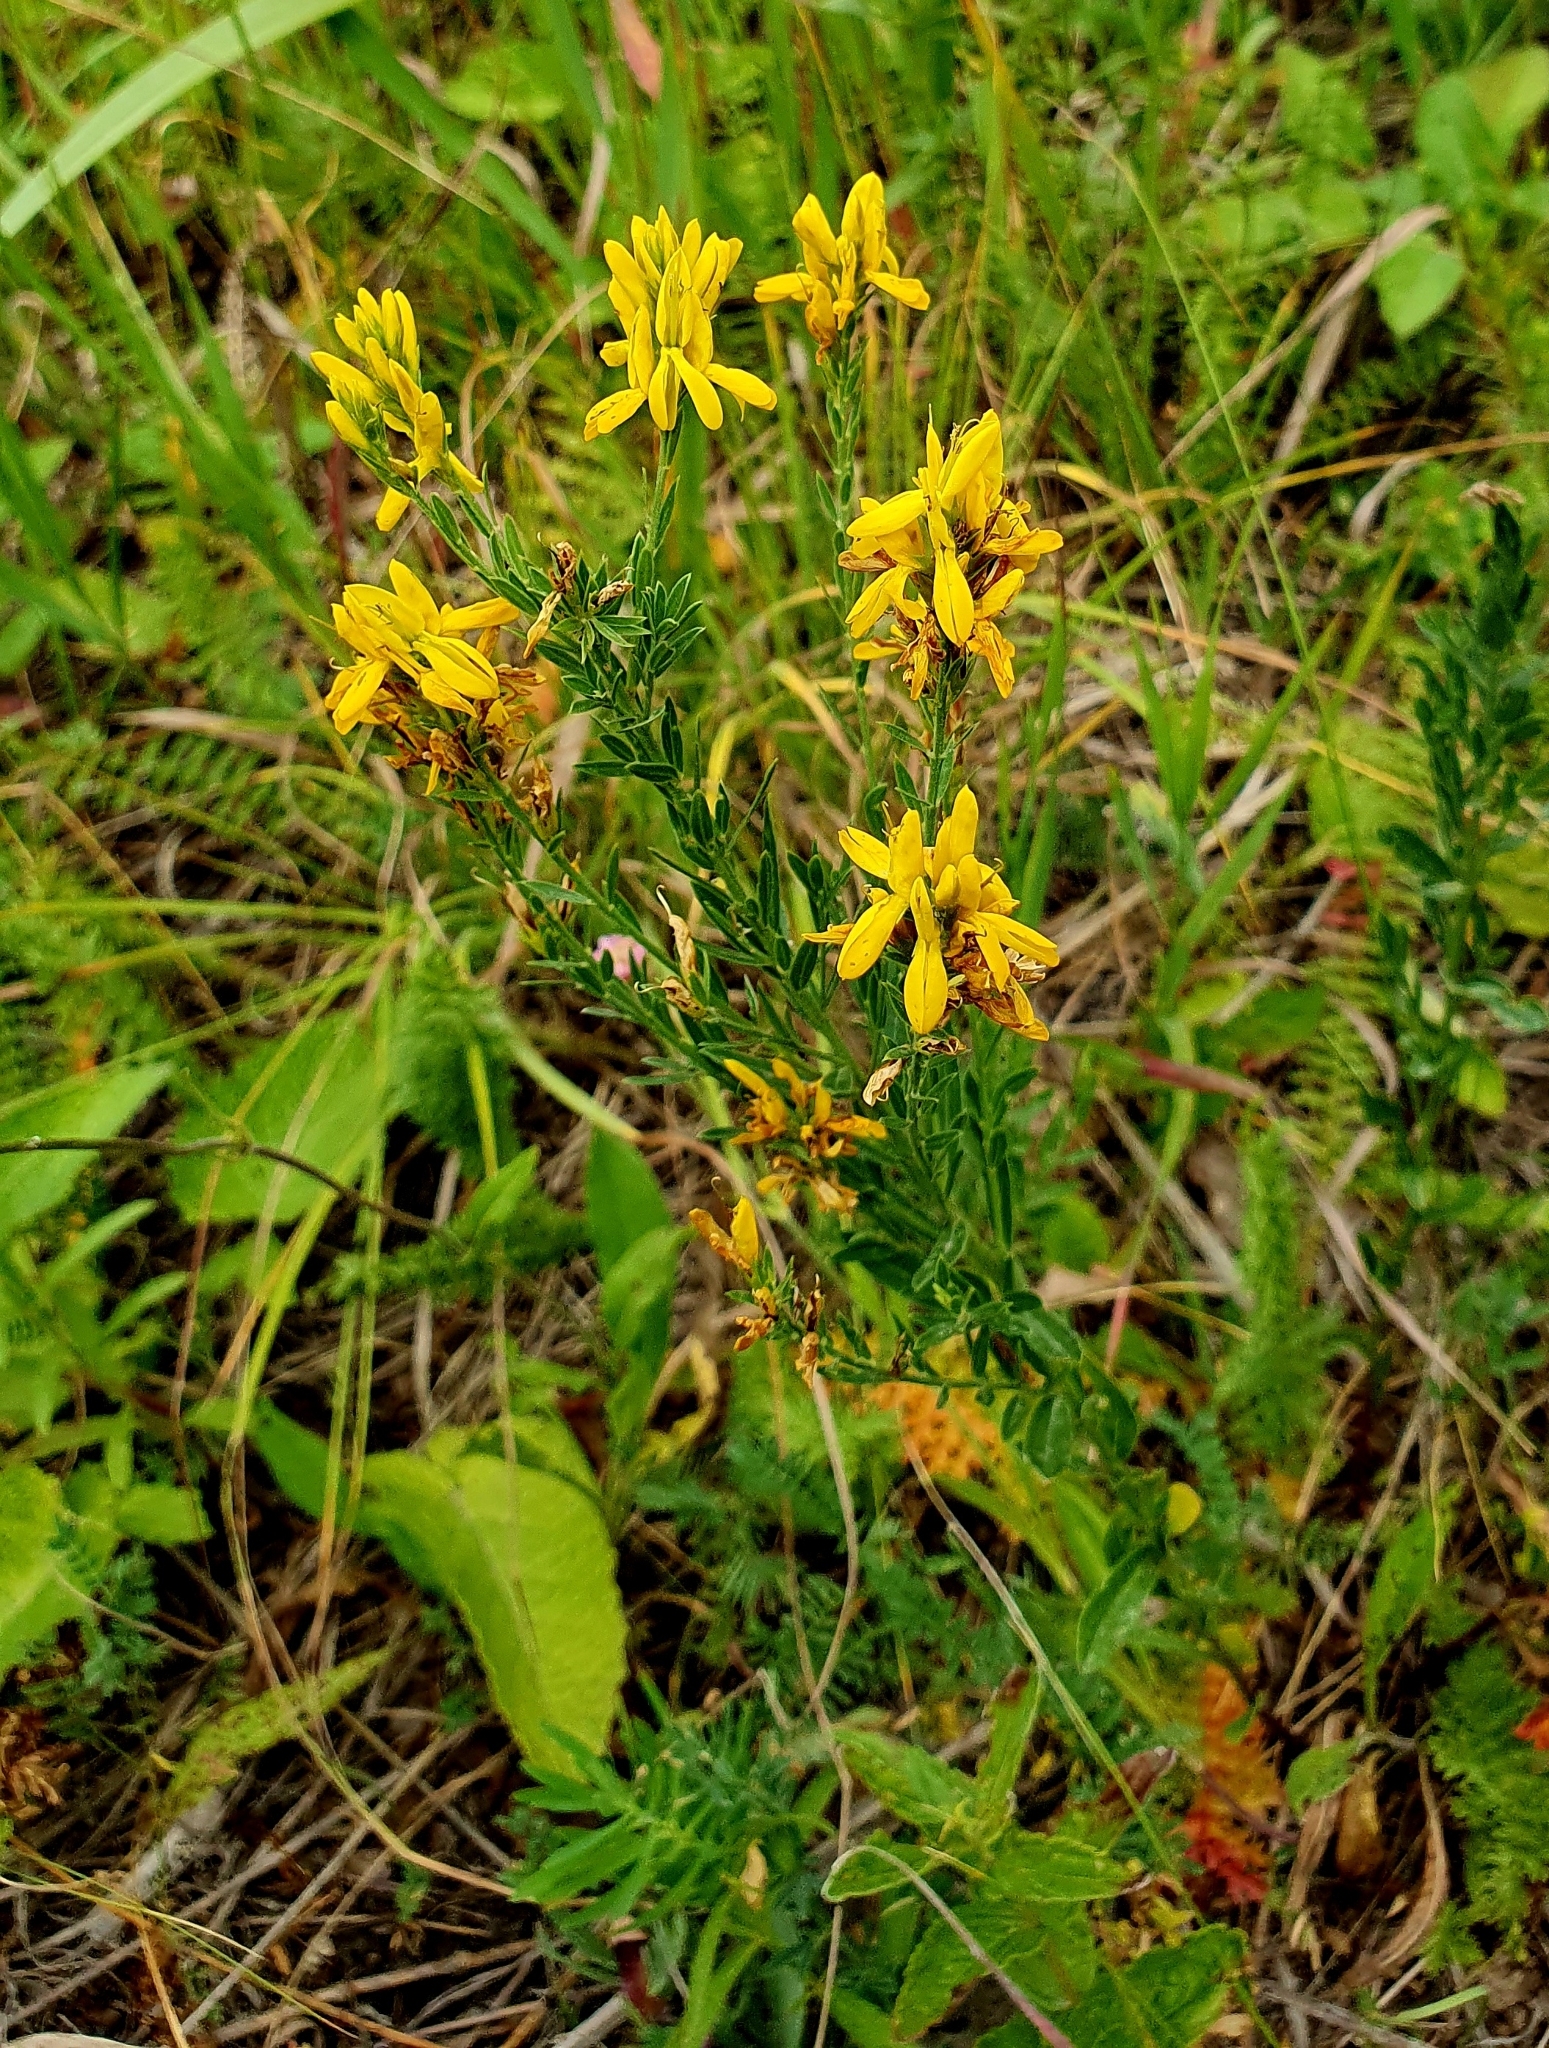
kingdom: Plantae
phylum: Tracheophyta
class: Magnoliopsida
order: Fabales
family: Fabaceae
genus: Genista
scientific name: Genista tinctoria
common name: Dyer's greenweed
